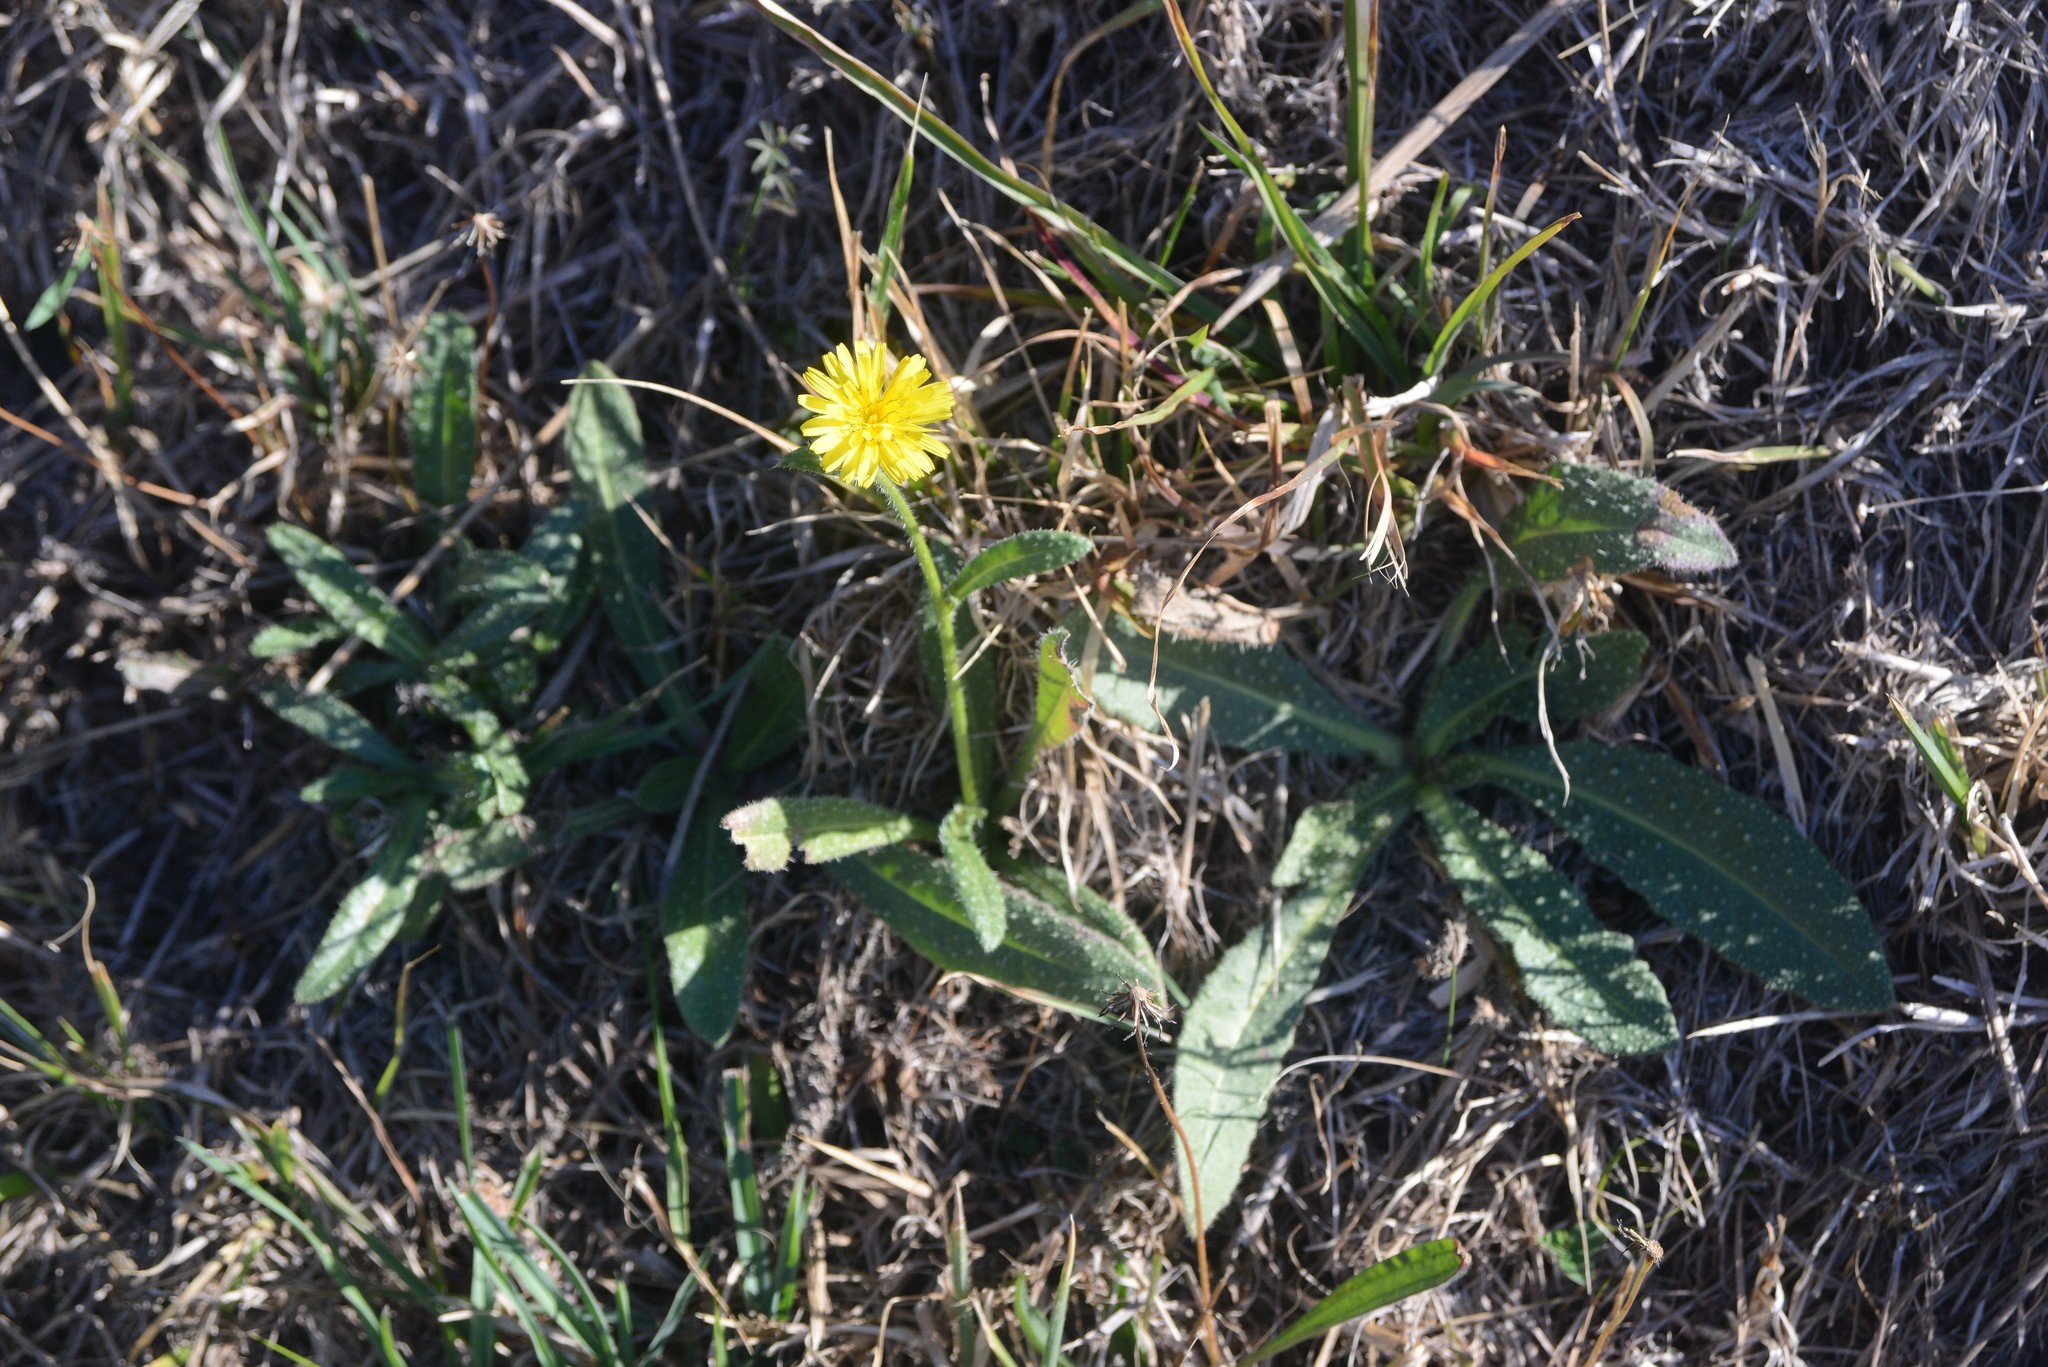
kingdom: Plantae
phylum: Tracheophyta
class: Magnoliopsida
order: Asterales
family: Asteraceae
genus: Helminthotheca
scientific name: Helminthotheca echioides
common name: Ox-tongue
